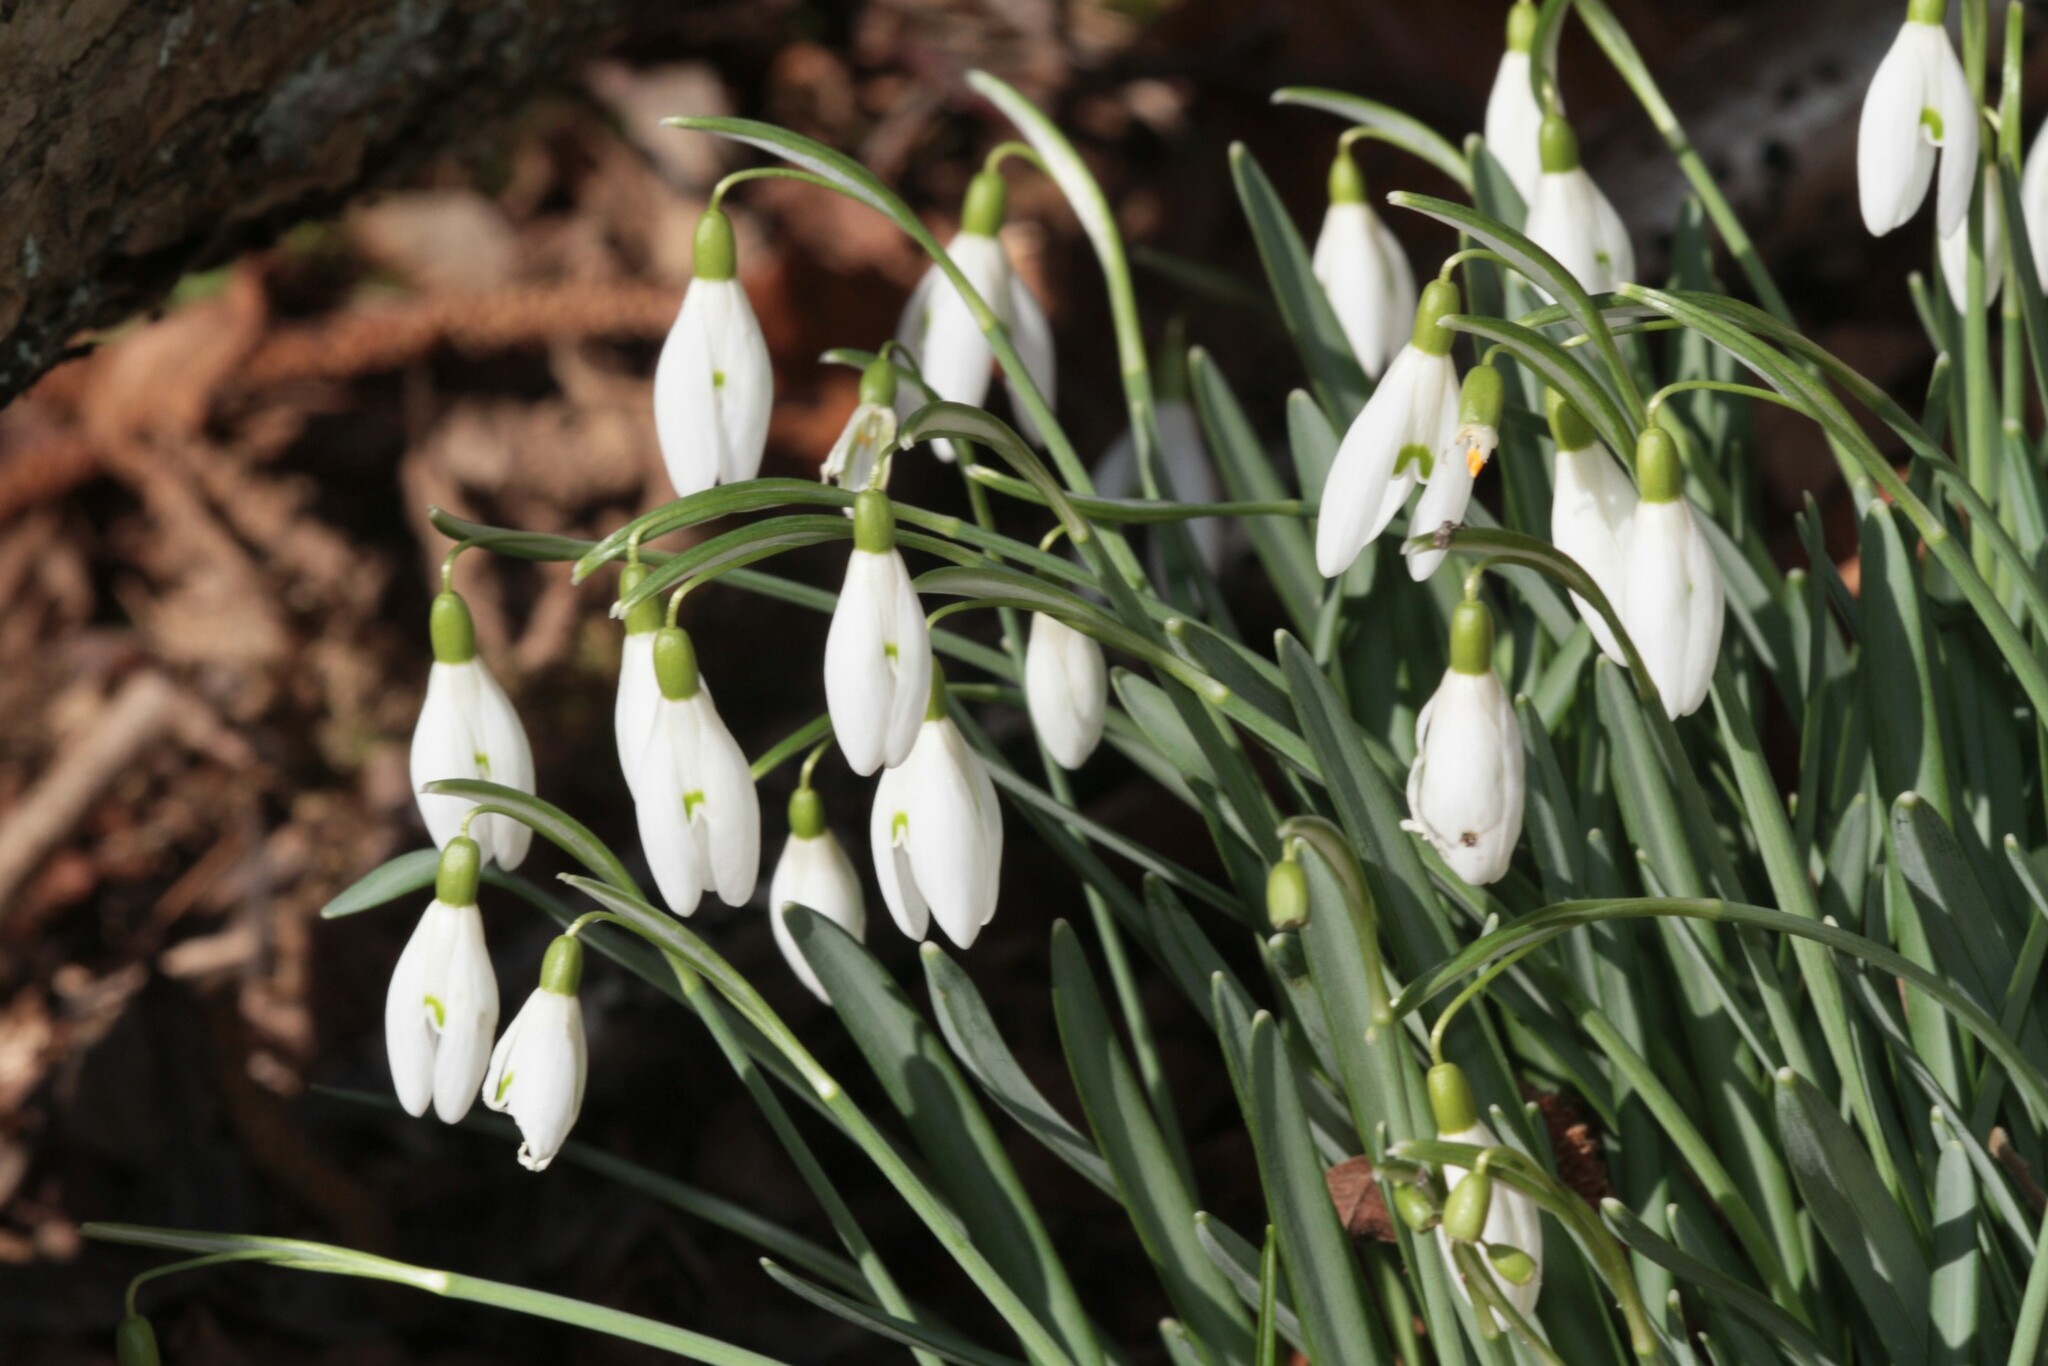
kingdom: Plantae
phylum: Tracheophyta
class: Liliopsida
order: Asparagales
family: Amaryllidaceae
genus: Galanthus
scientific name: Galanthus nivalis
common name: Snowdrop
